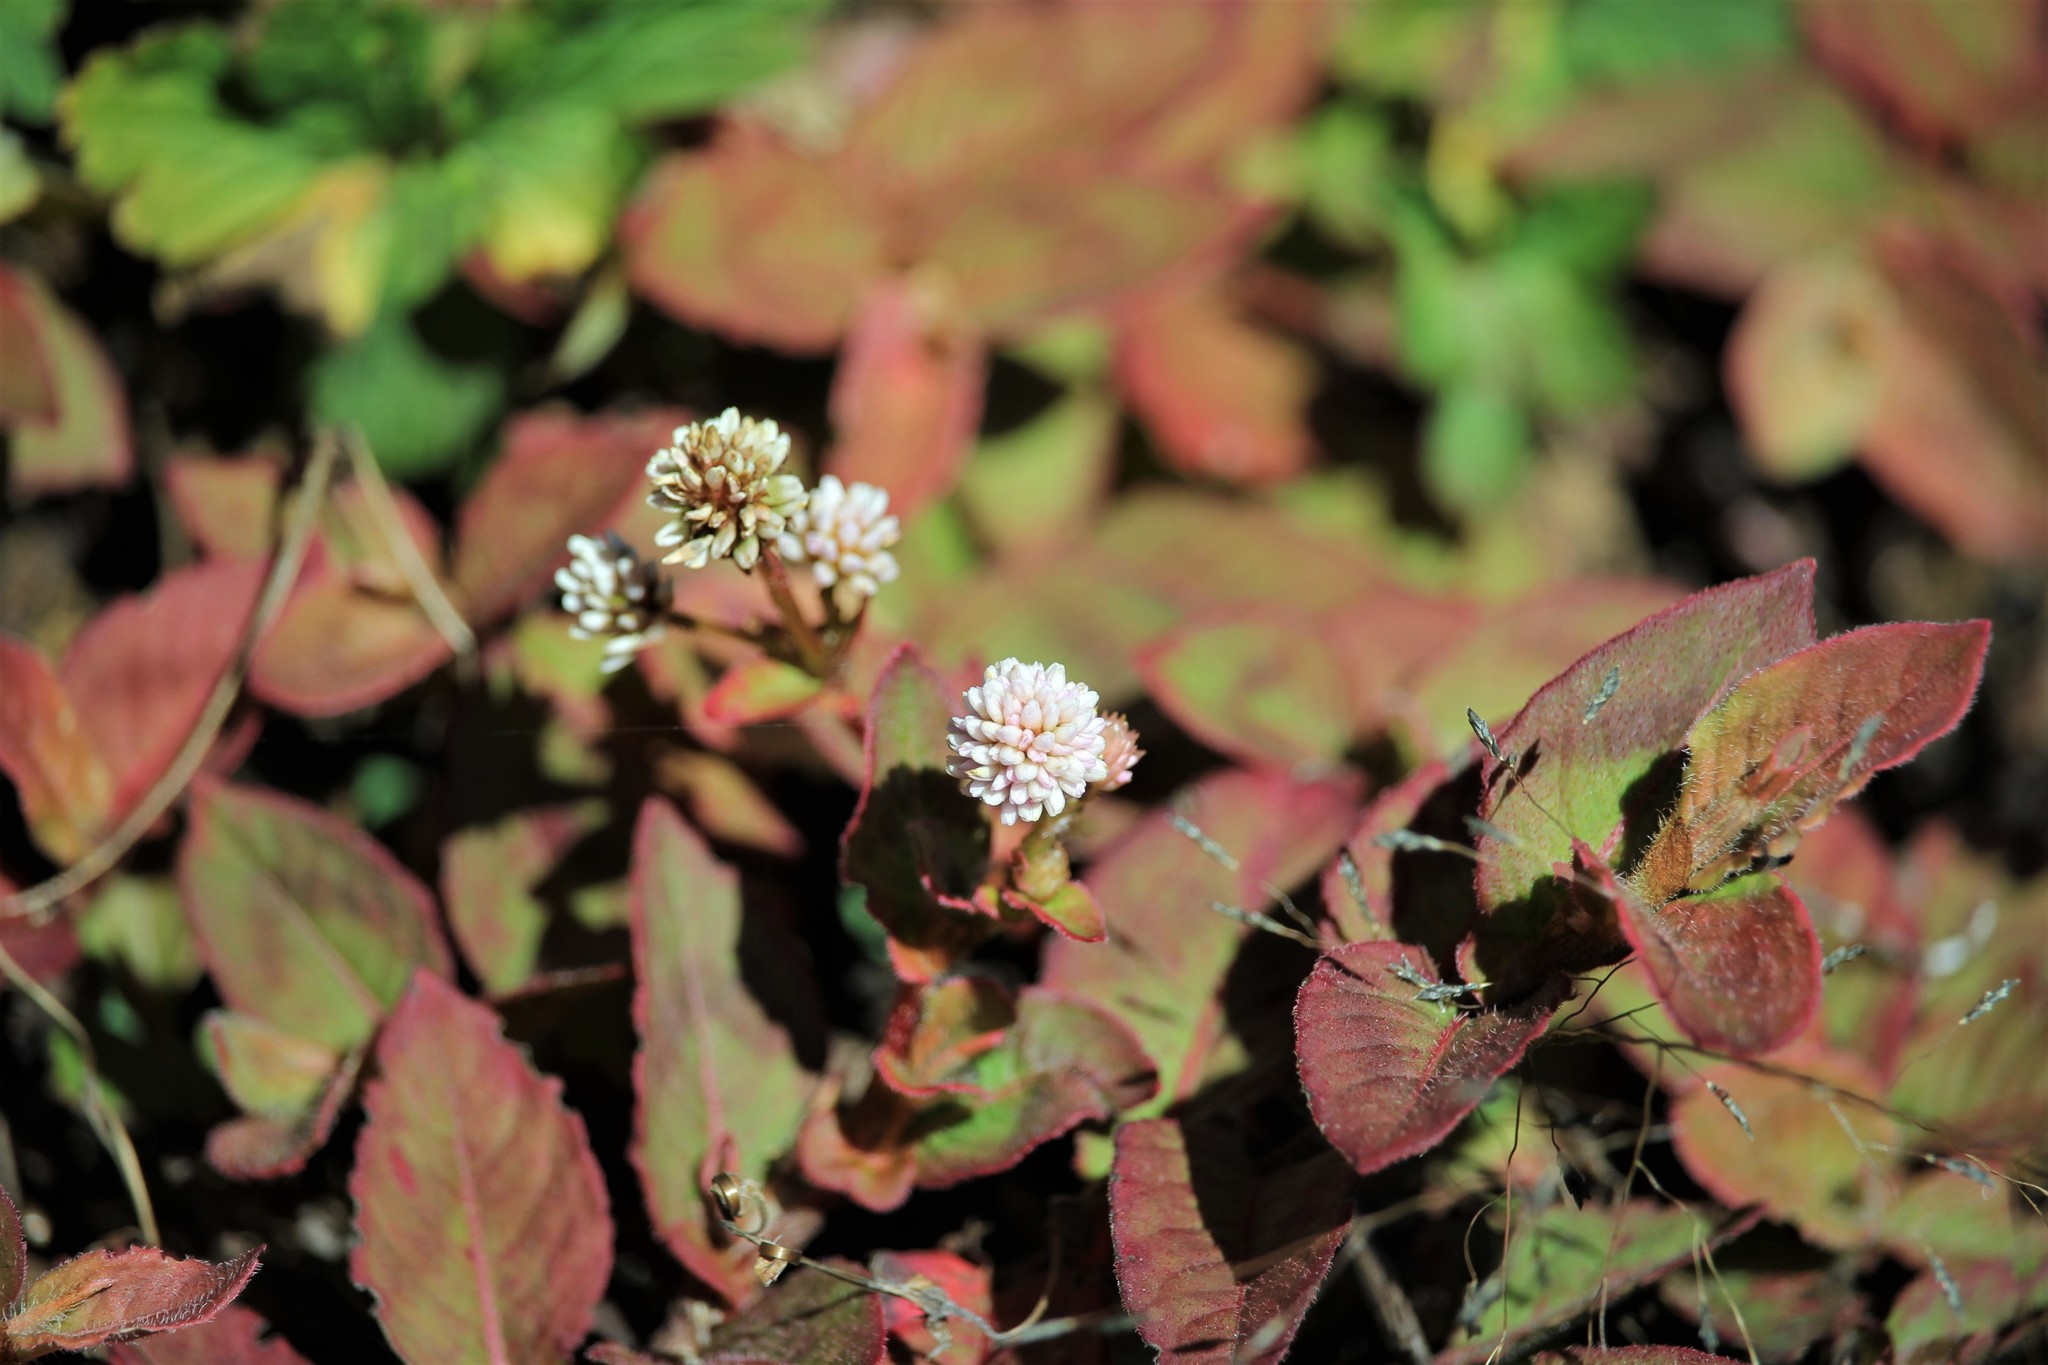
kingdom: Plantae
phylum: Tracheophyta
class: Magnoliopsida
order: Caryophyllales
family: Polygonaceae
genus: Persicaria
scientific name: Persicaria capitata
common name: Pinkhead smartweed
